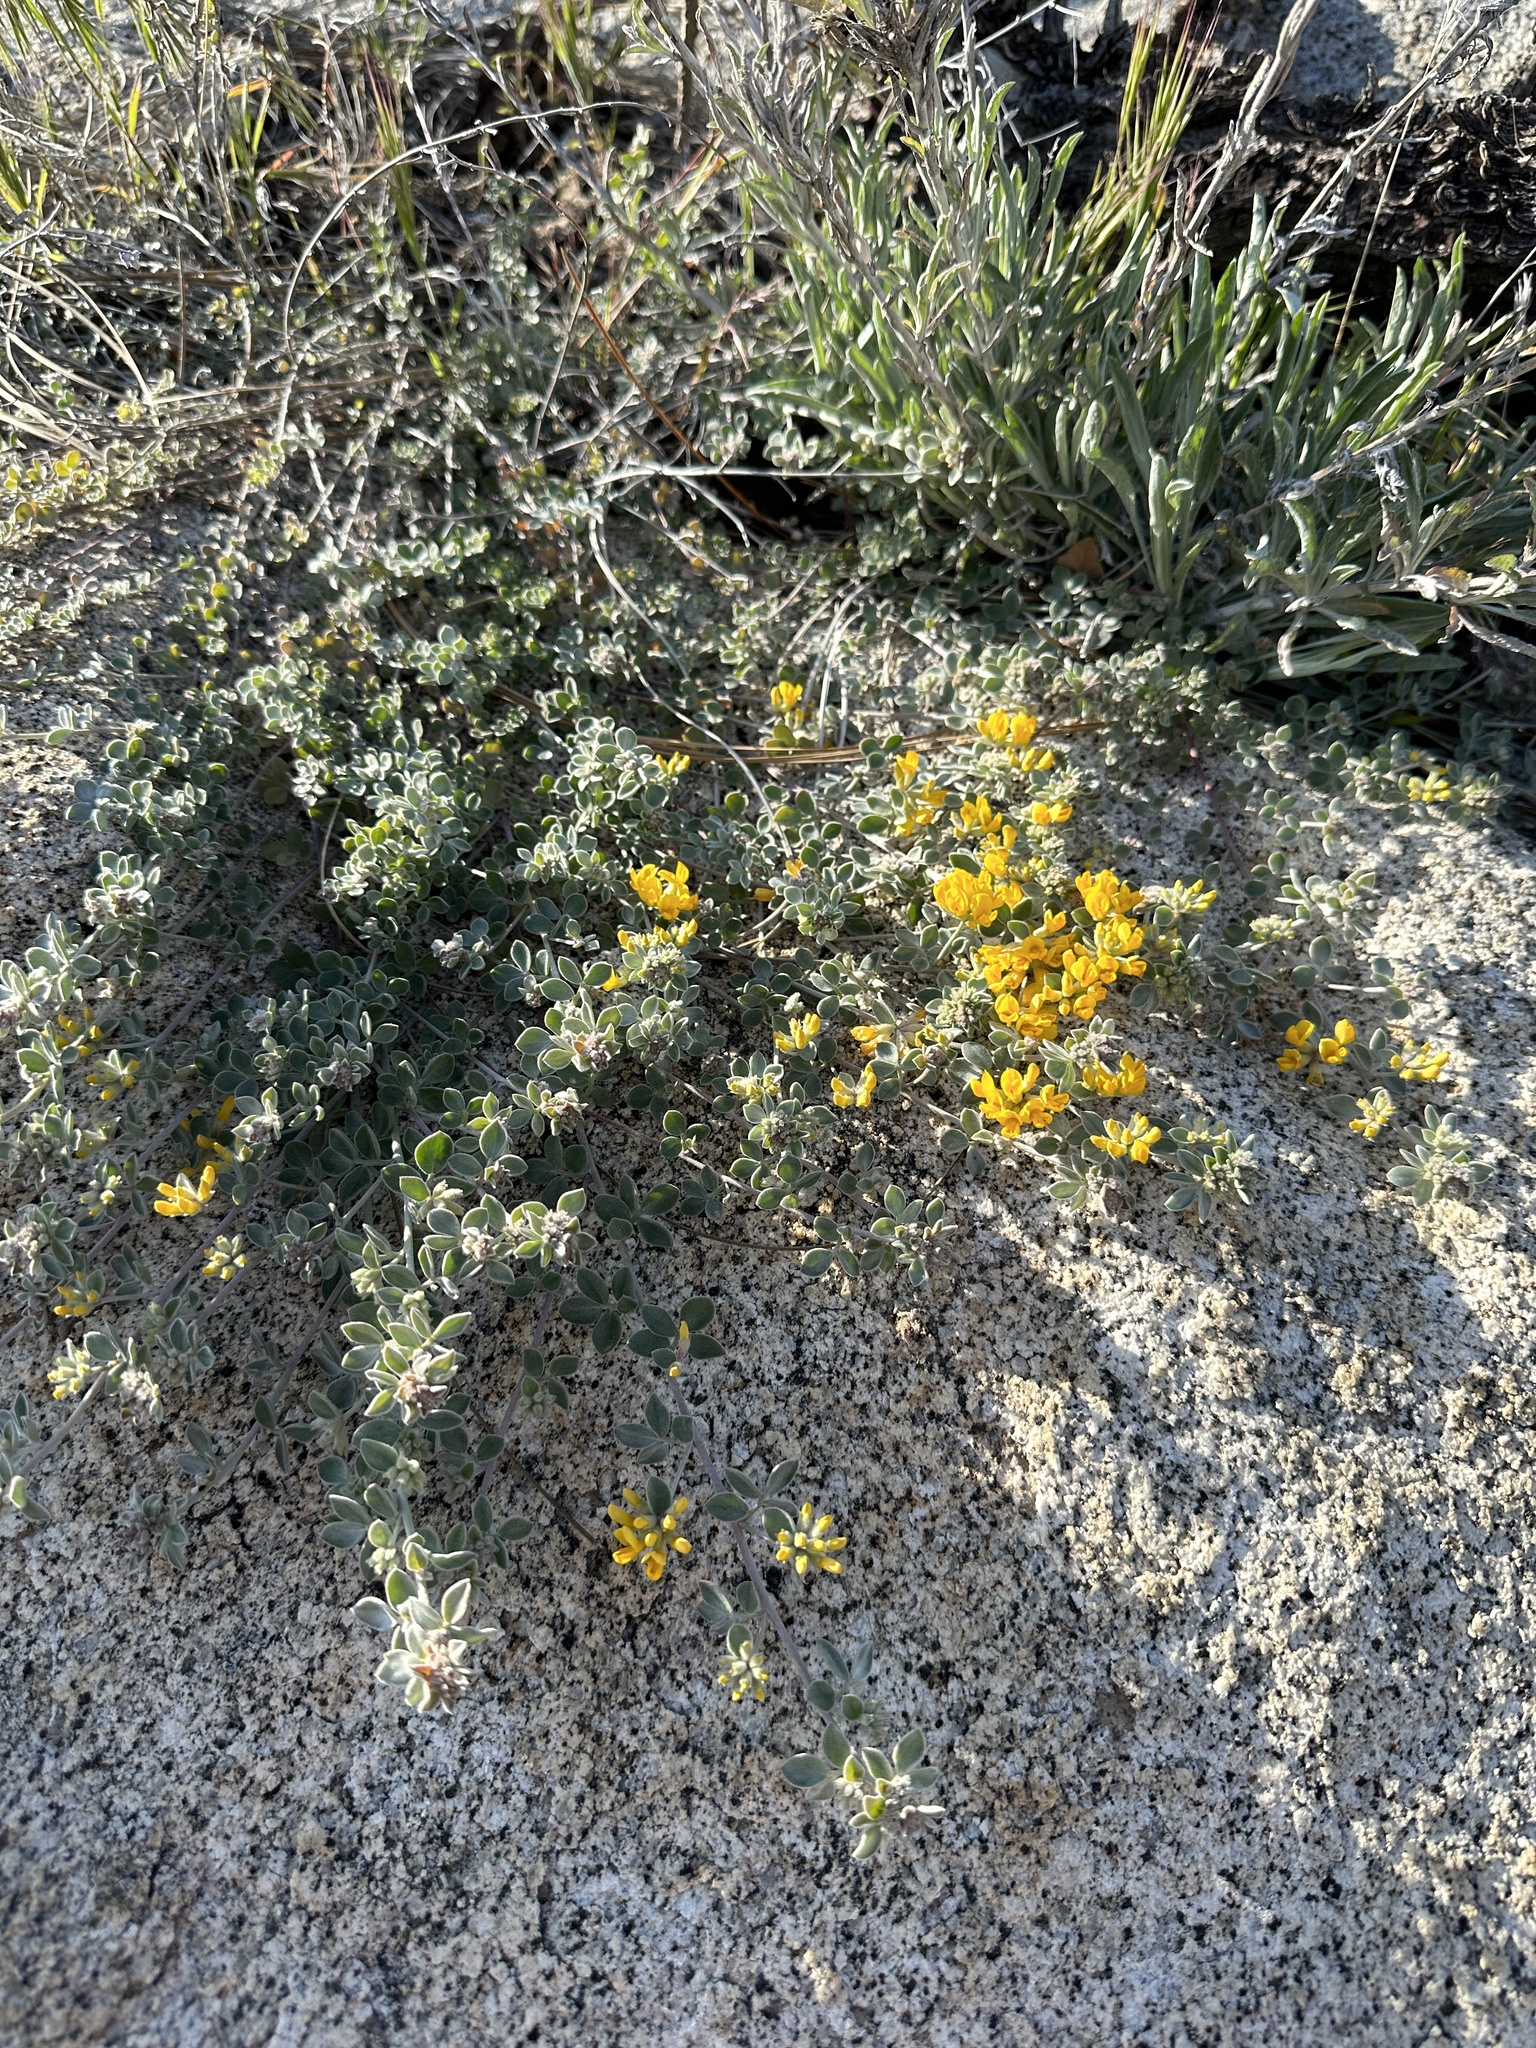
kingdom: Plantae
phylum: Tracheophyta
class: Magnoliopsida
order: Fabales
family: Fabaceae
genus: Acmispon
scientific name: Acmispon argophyllus
